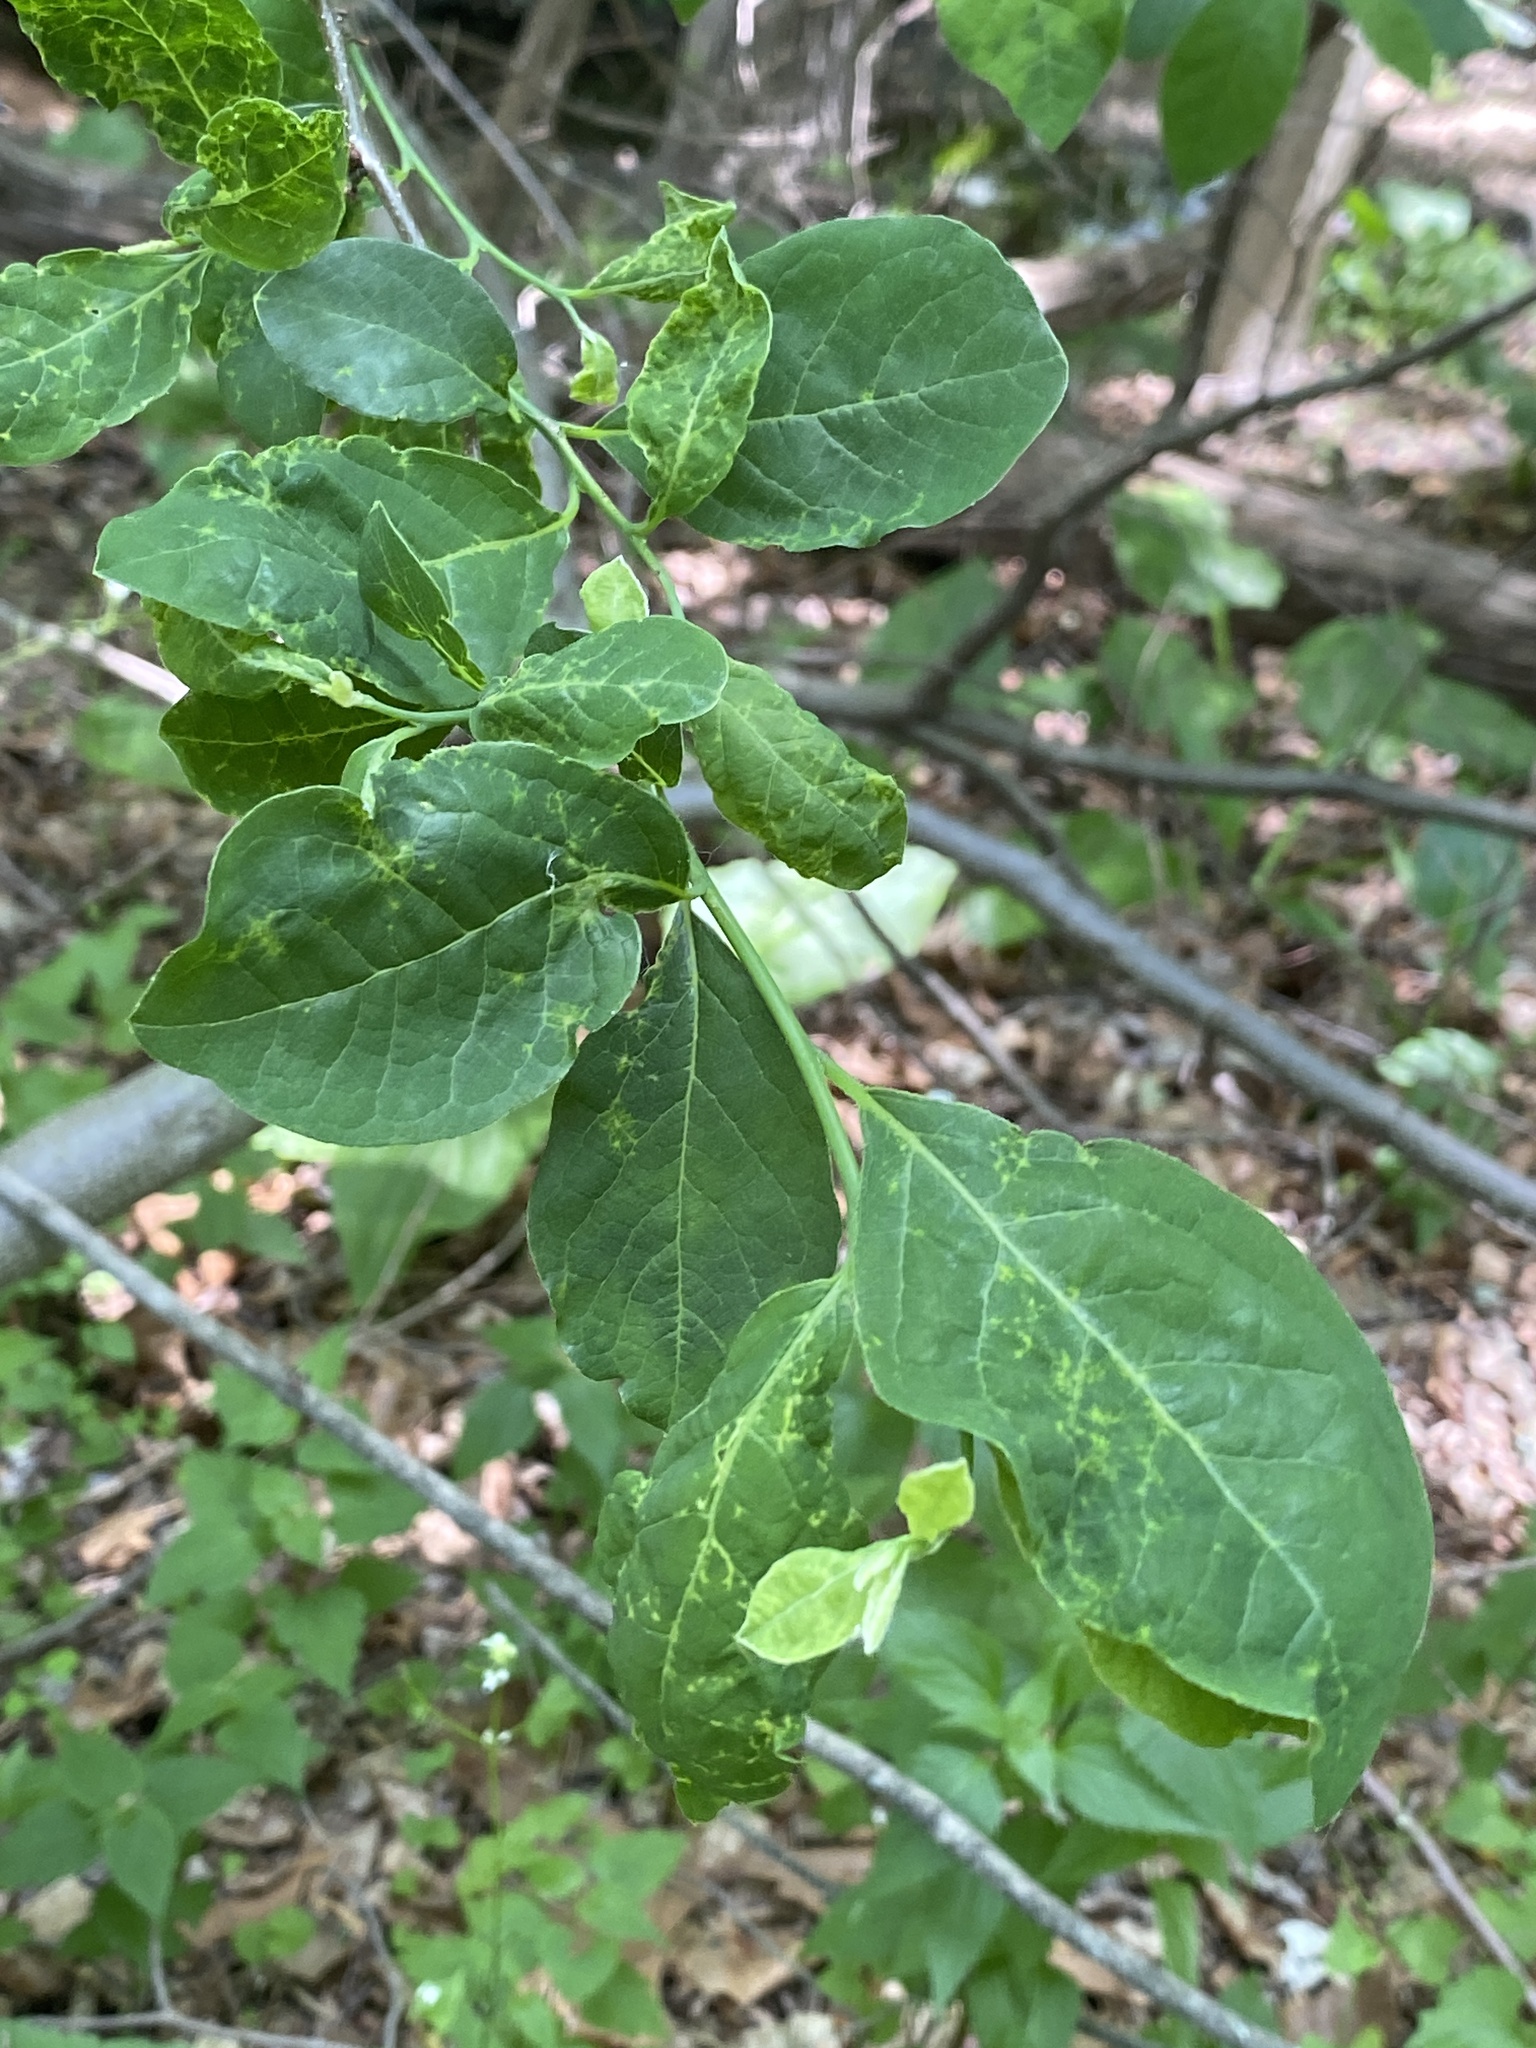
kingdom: Plantae
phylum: Tracheophyta
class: Magnoliopsida
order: Laurales
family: Lauraceae
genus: Lindera
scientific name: Lindera benzoin
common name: Spicebush
